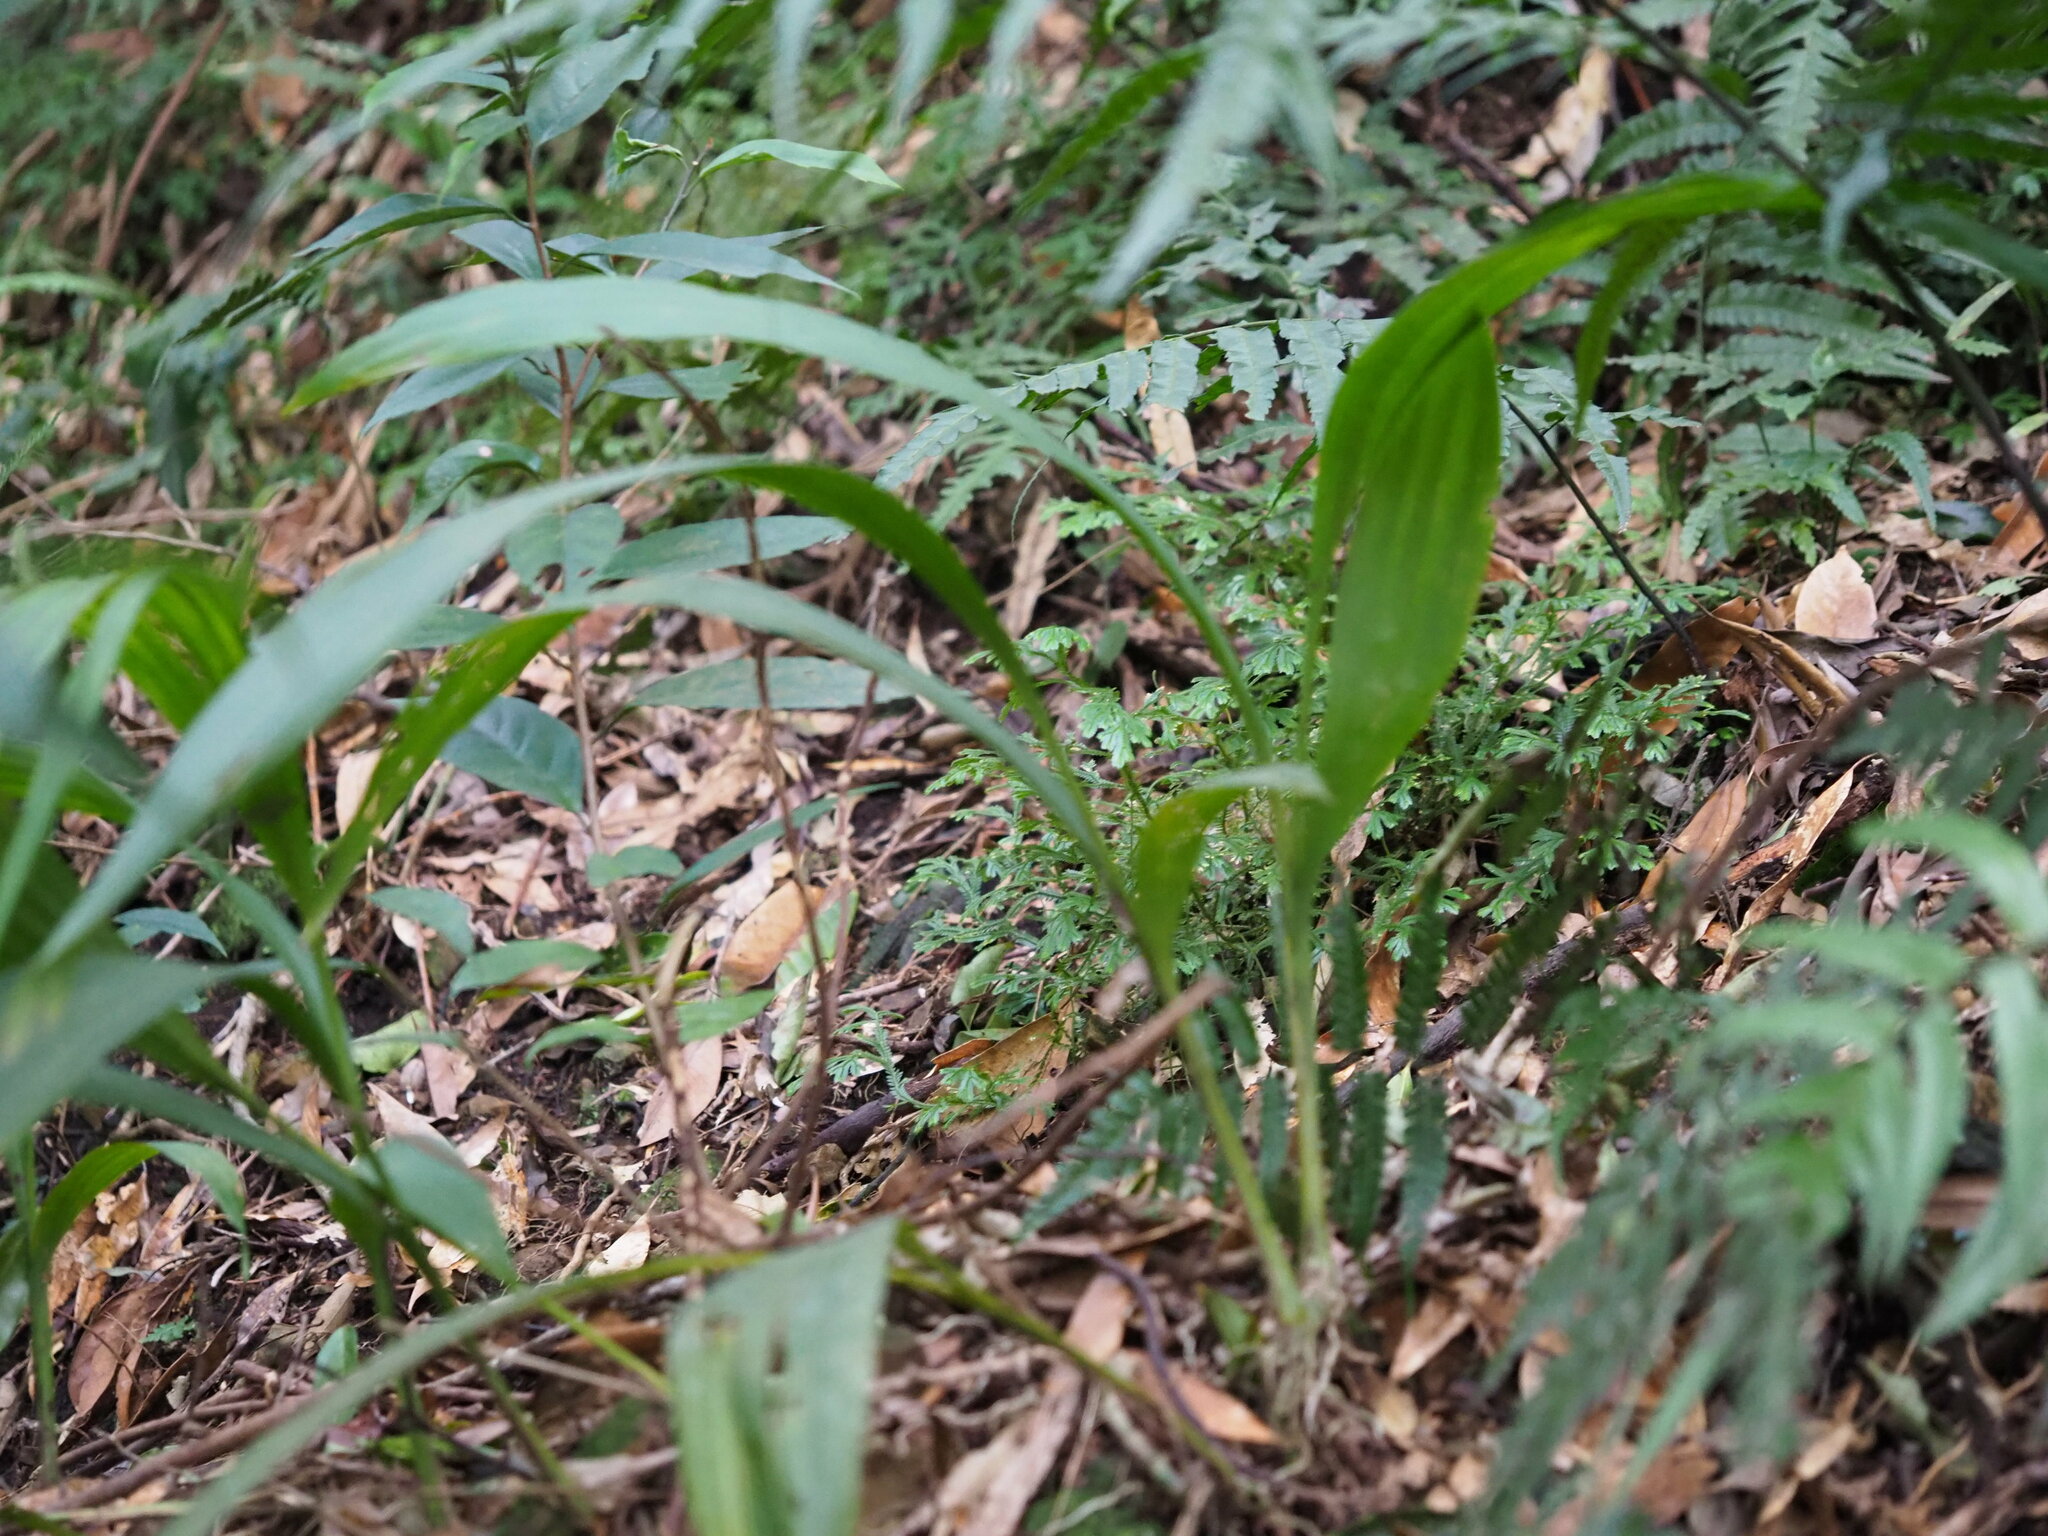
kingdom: Plantae
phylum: Tracheophyta
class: Liliopsida
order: Asparagales
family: Orchidaceae
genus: Calanthe
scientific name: Calanthe densiflora
